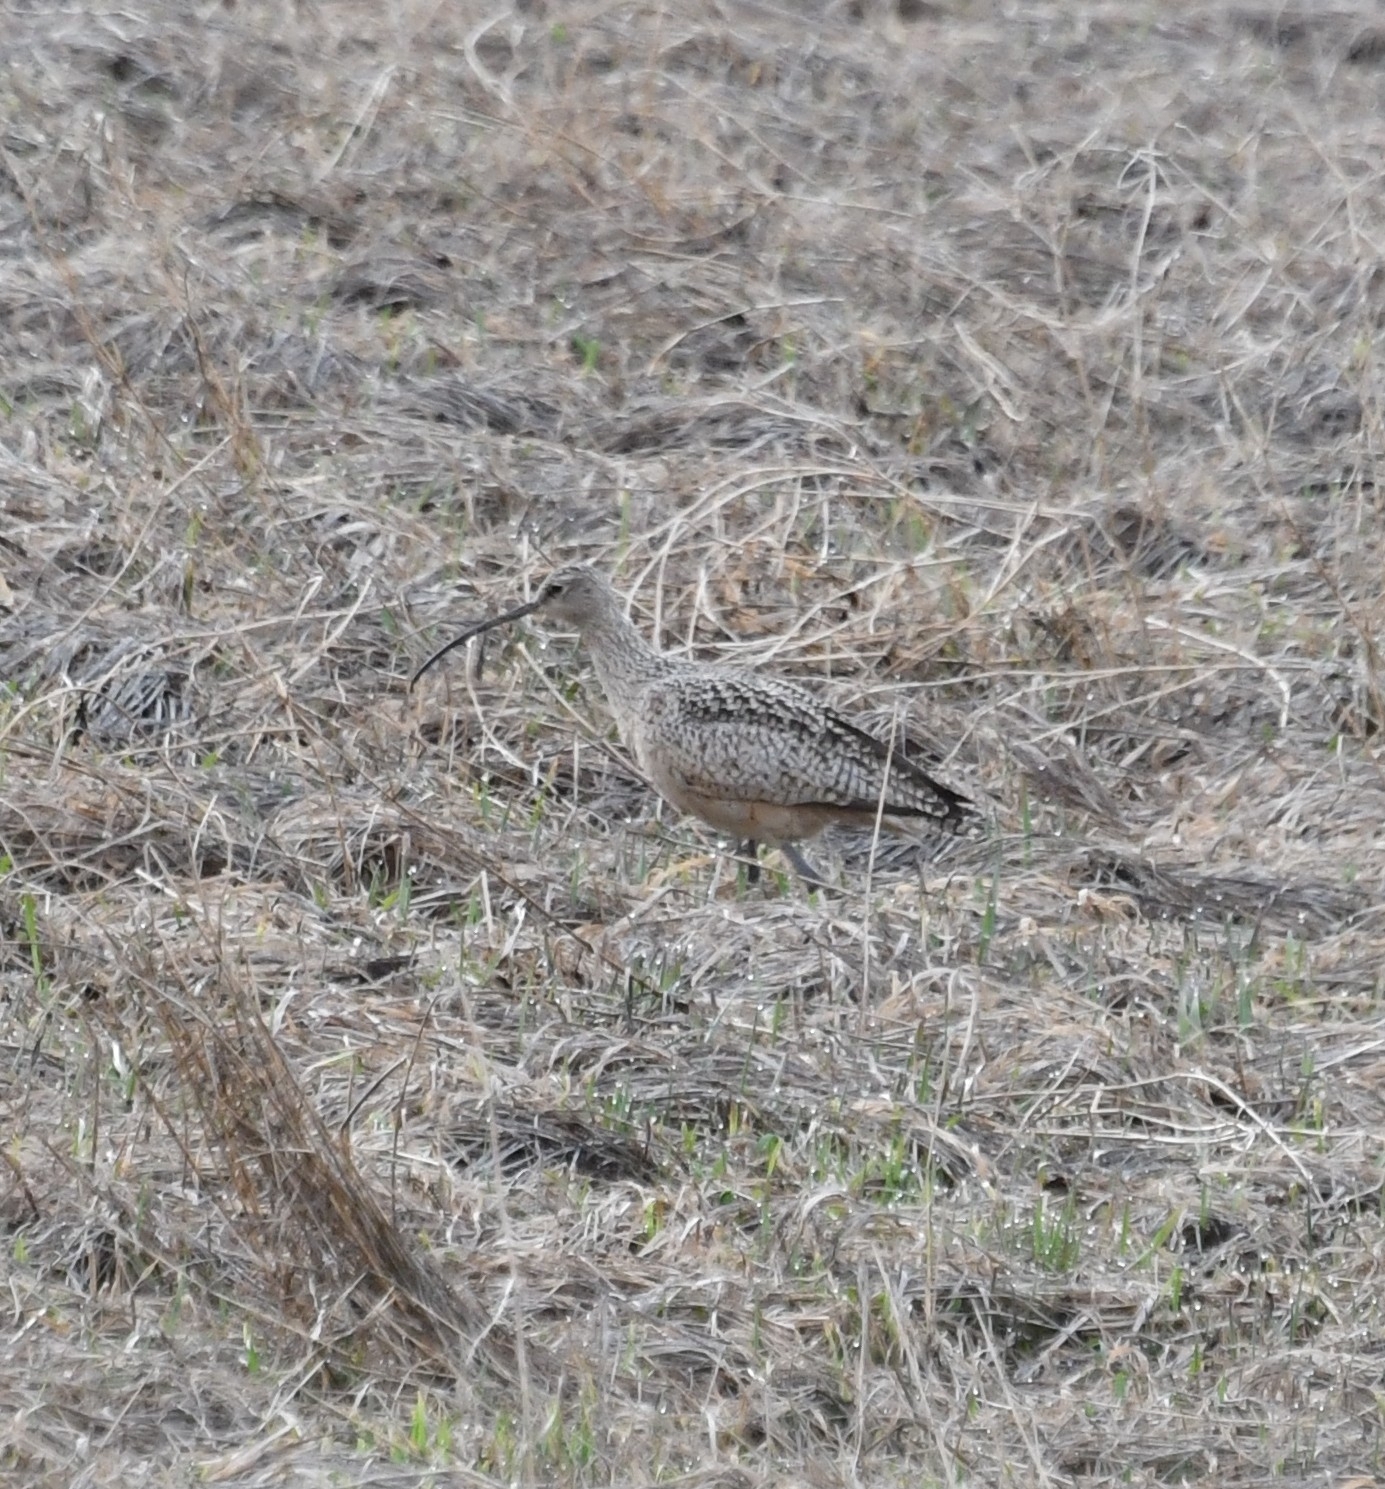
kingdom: Animalia
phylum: Chordata
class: Aves
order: Charadriiformes
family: Scolopacidae
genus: Numenius
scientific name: Numenius americanus
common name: Long-billed curlew
